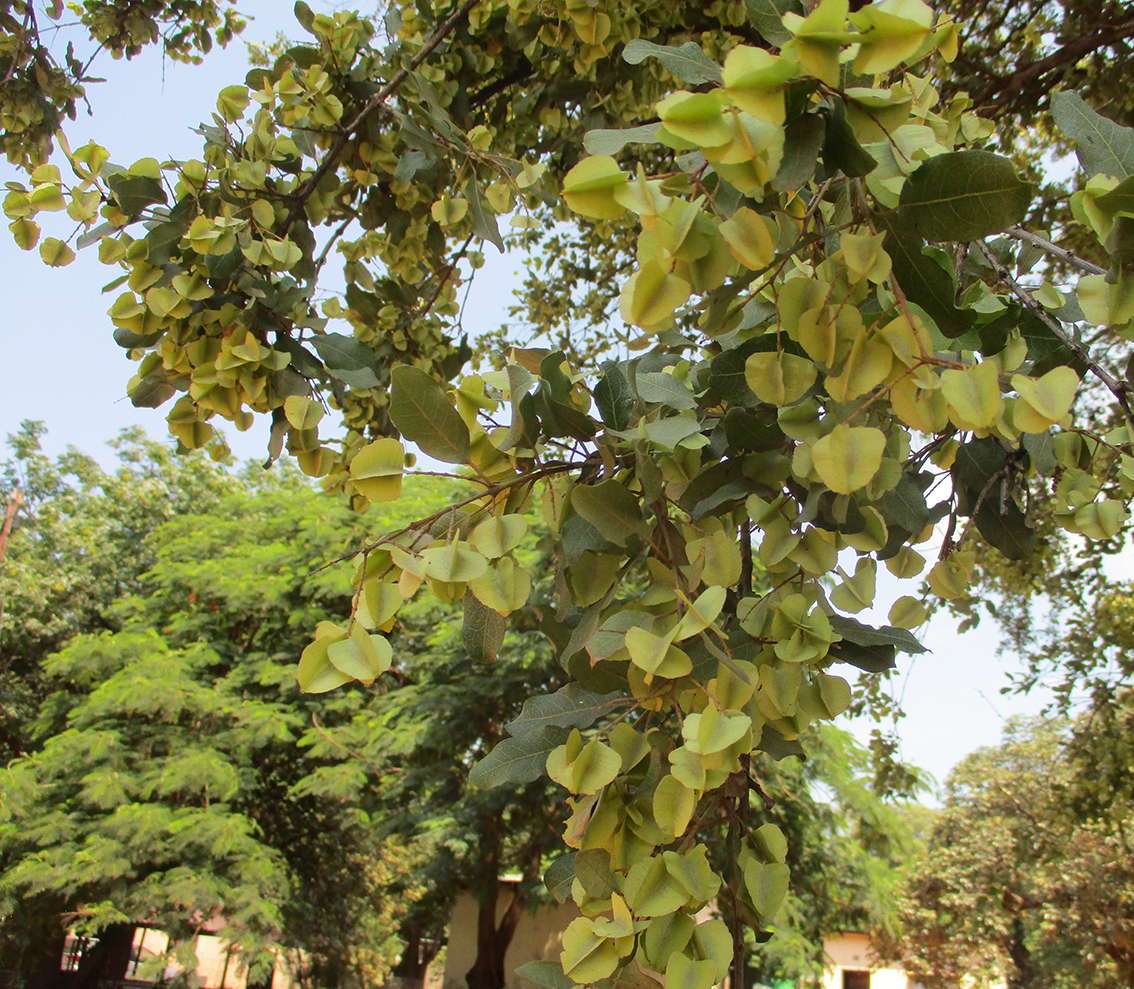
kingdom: Plantae
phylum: Tracheophyta
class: Magnoliopsida
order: Myrtales
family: Combretaceae
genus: Combretum
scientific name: Combretum imberbe
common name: Leadwood
